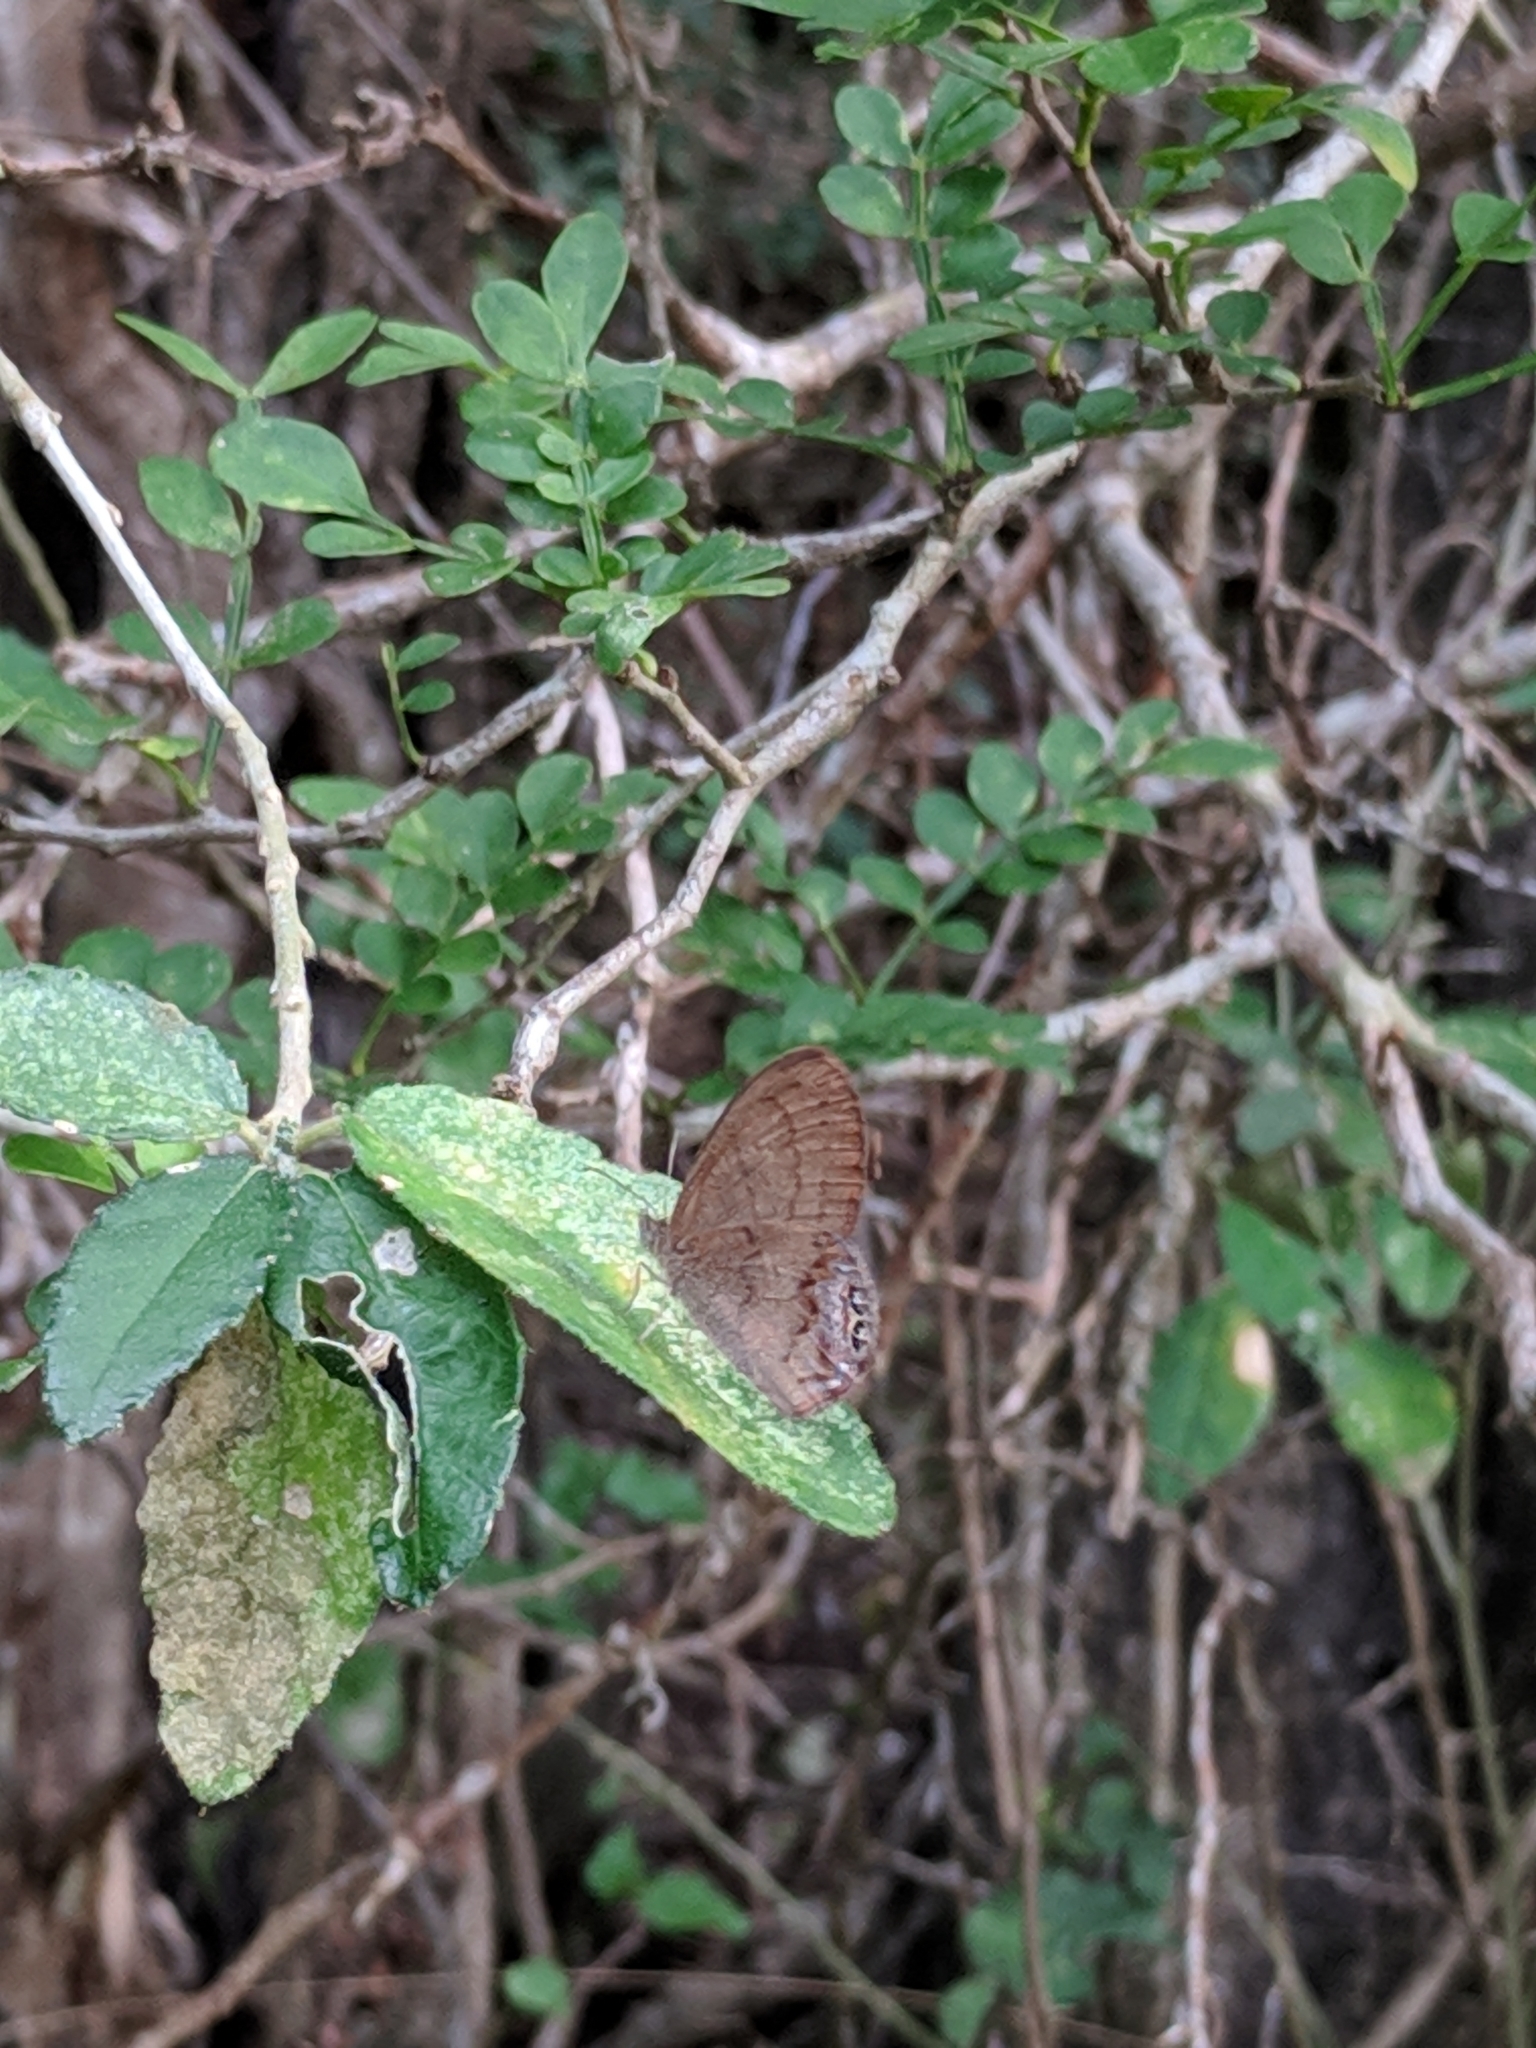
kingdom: Animalia
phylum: Arthropoda
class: Insecta
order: Lepidoptera
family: Nymphalidae
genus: Euptychia
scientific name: Euptychia cornelius
